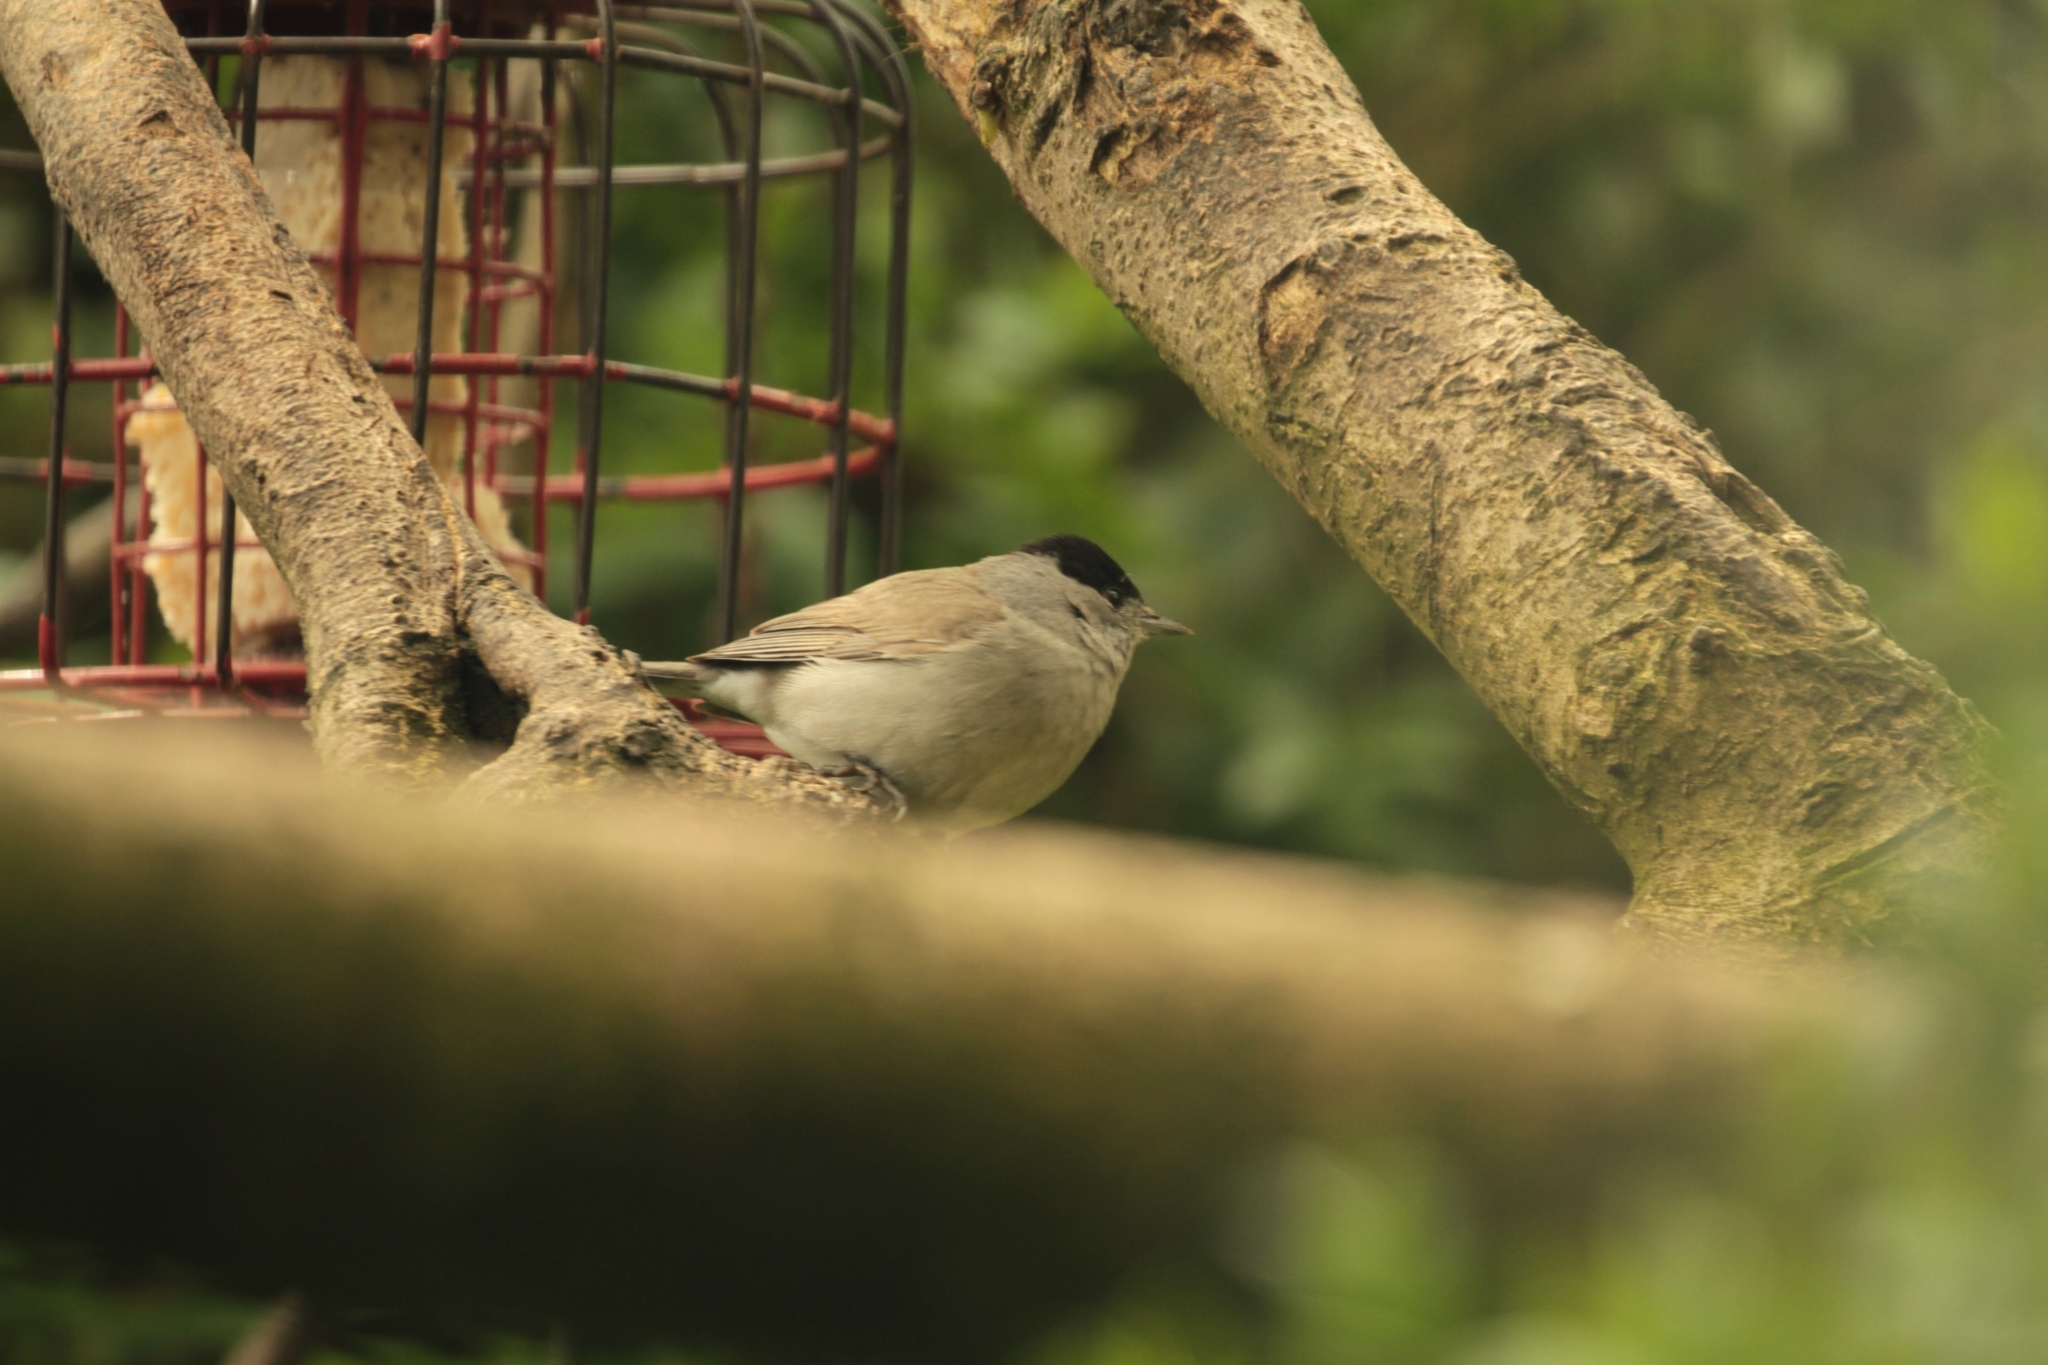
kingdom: Animalia
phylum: Chordata
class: Aves
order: Passeriformes
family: Sylviidae
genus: Sylvia
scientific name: Sylvia atricapilla
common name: Eurasian blackcap
